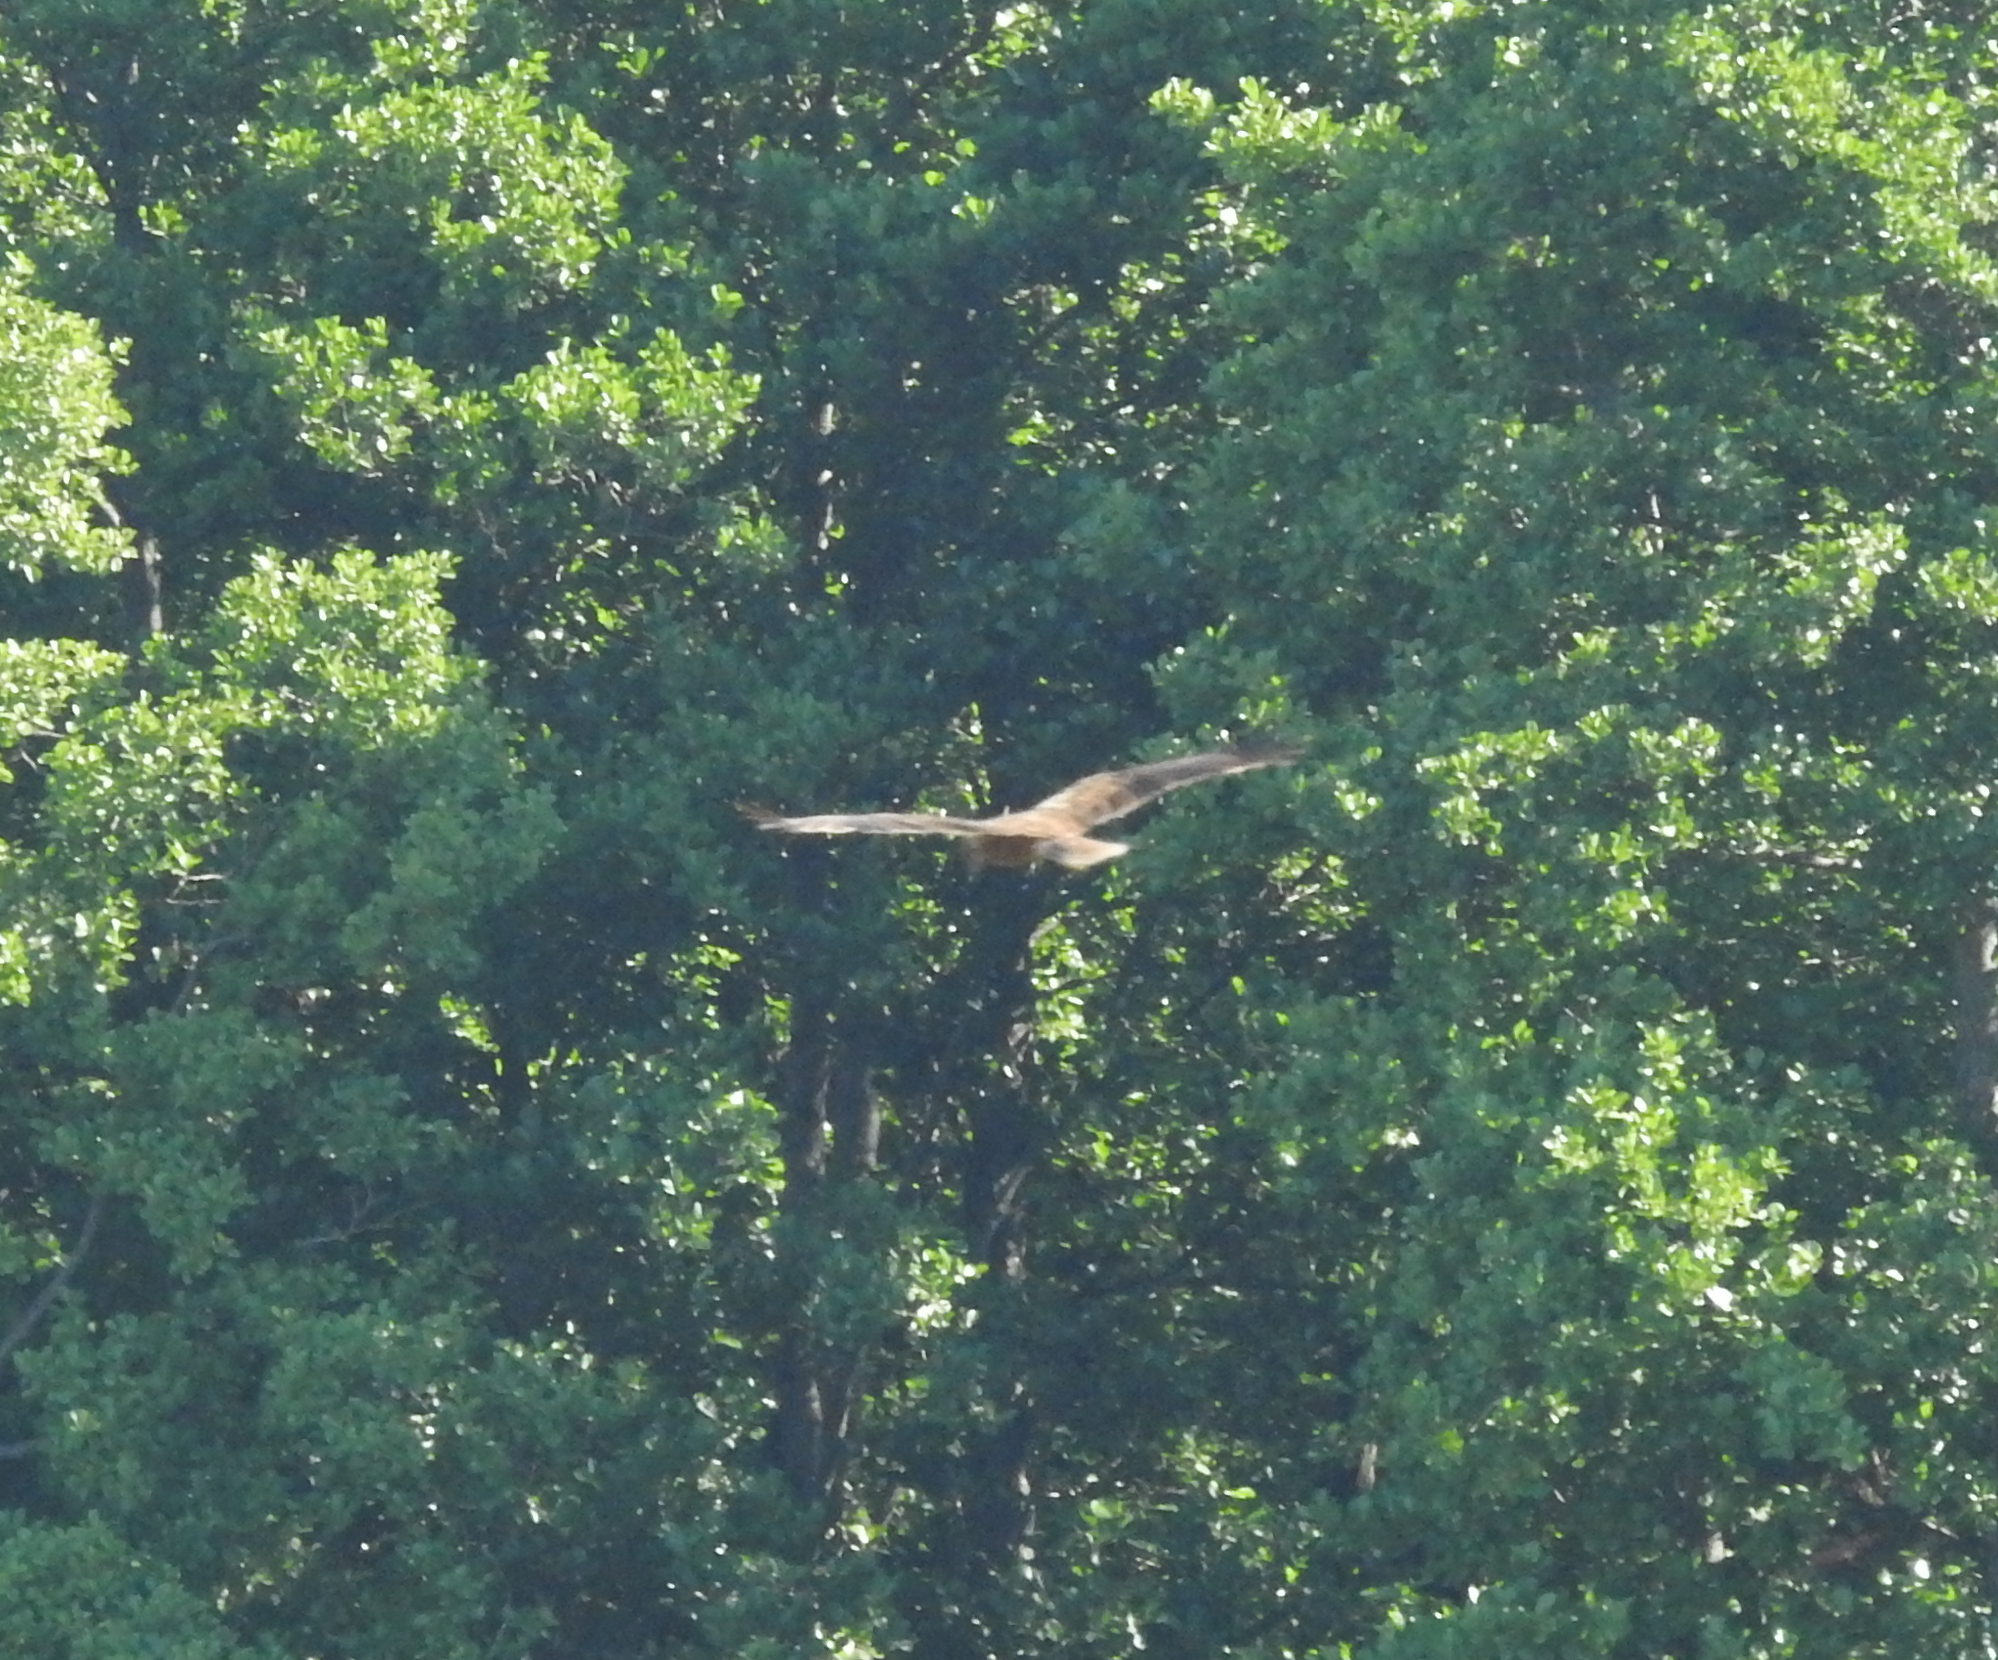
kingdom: Animalia
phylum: Chordata
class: Aves
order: Accipitriformes
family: Accipitridae
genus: Circus
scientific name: Circus aeruginosus
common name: Western marsh harrier
